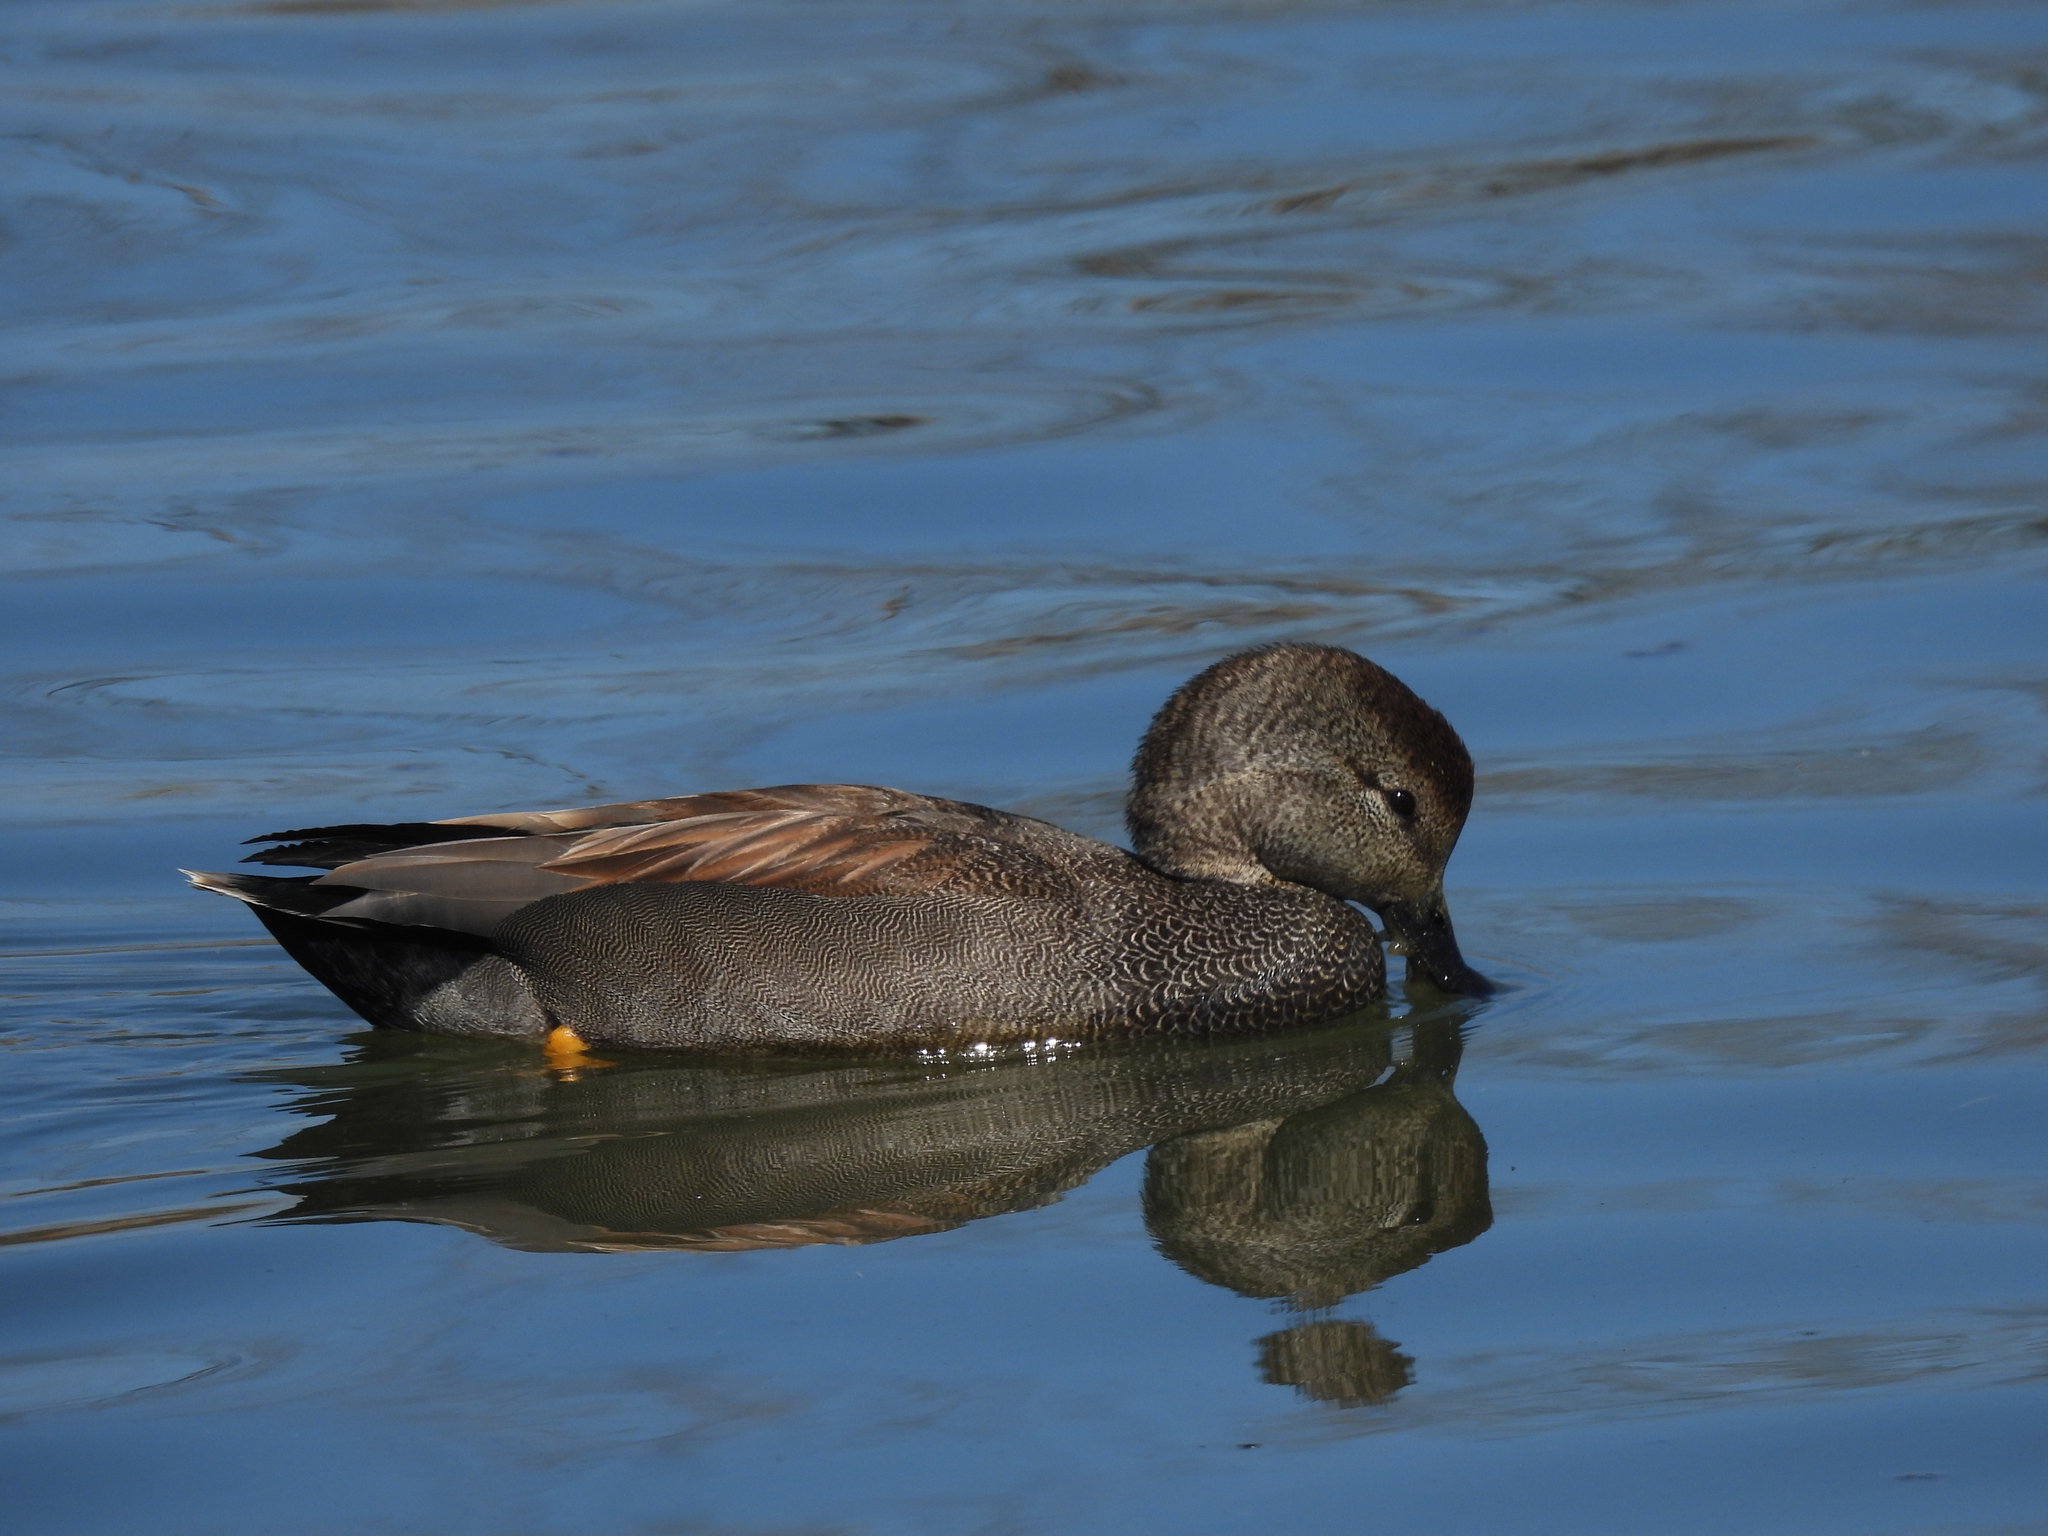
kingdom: Animalia
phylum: Chordata
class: Aves
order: Anseriformes
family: Anatidae
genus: Mareca
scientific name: Mareca strepera
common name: Gadwall
